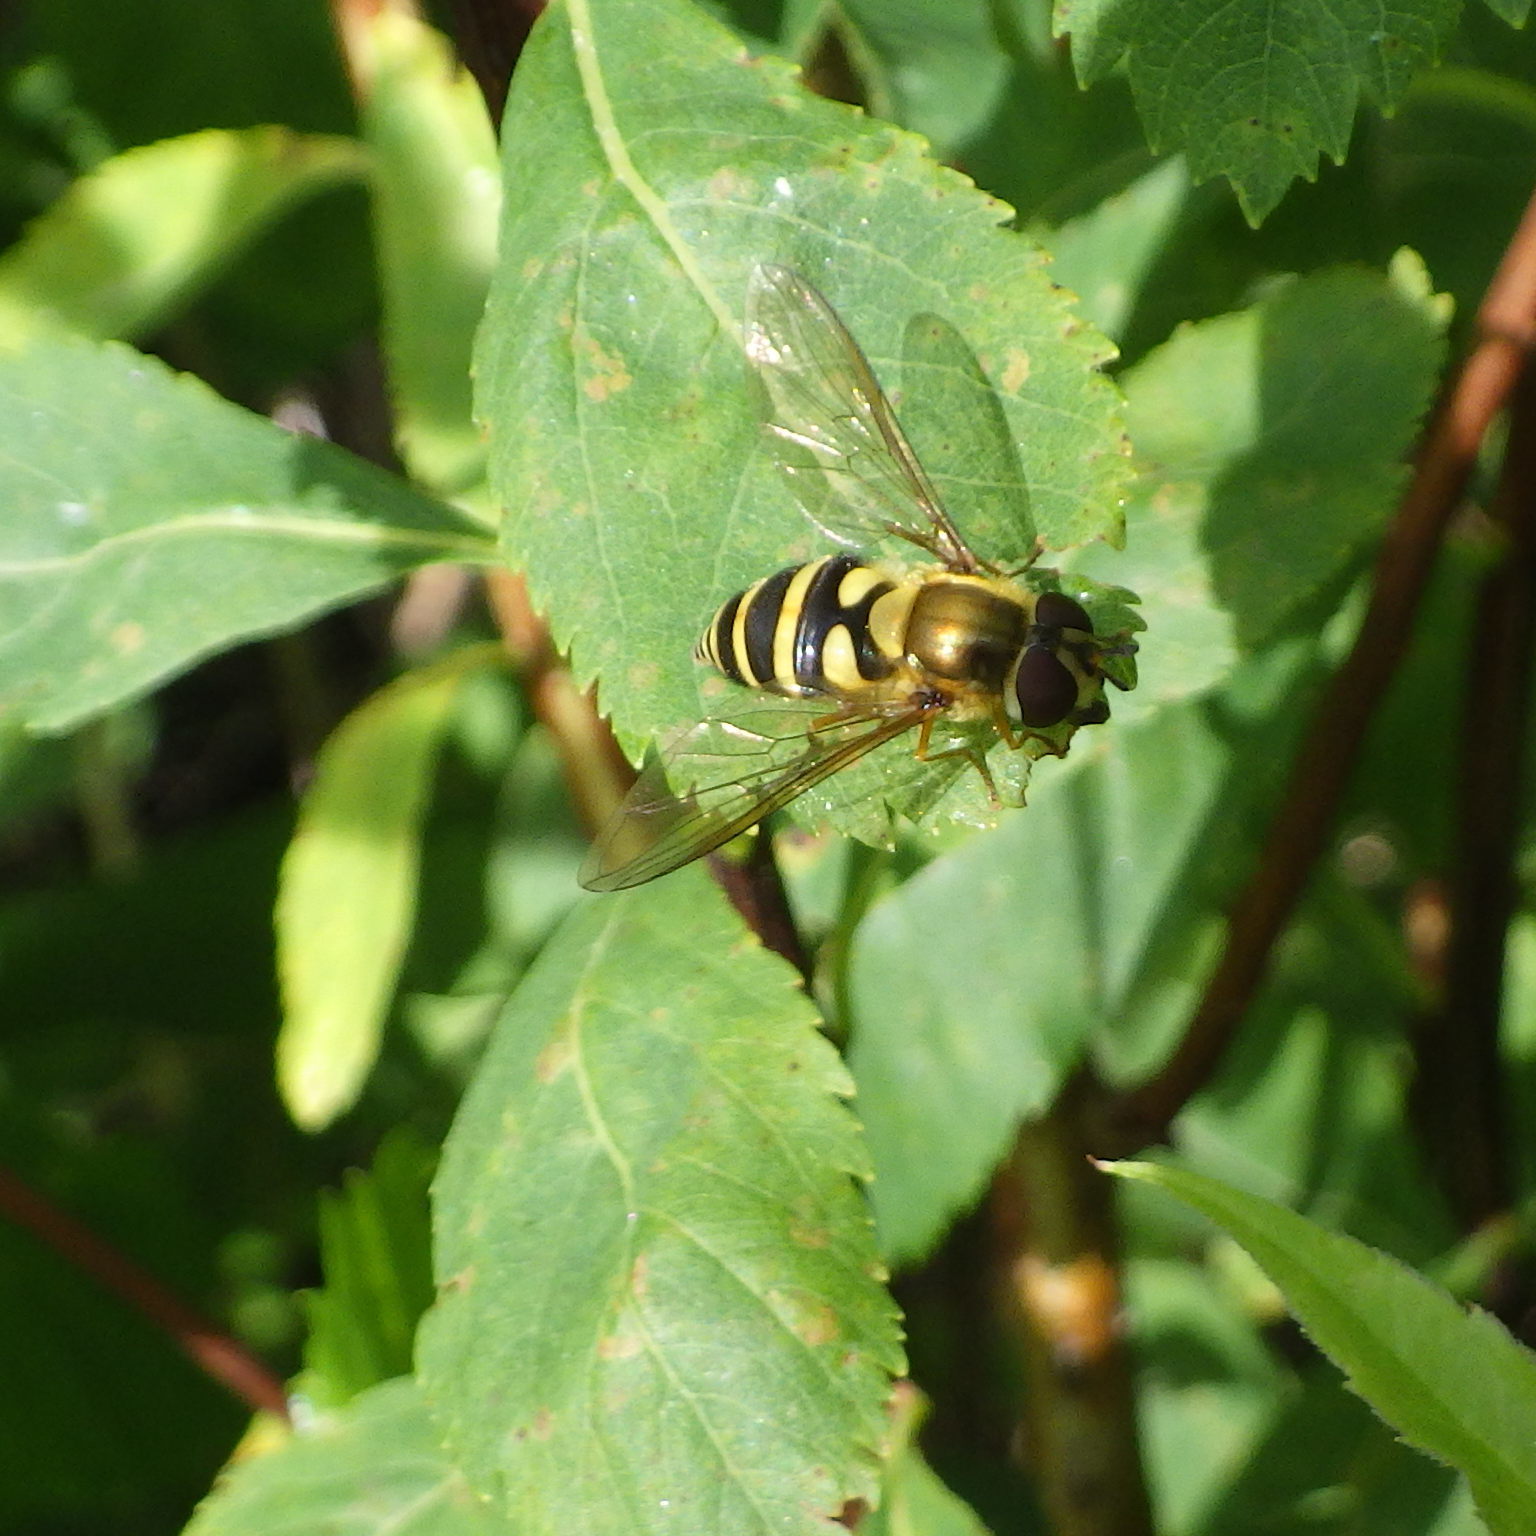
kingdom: Animalia
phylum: Arthropoda
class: Insecta
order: Diptera
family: Syrphidae
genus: Syrphus
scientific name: Syrphus
